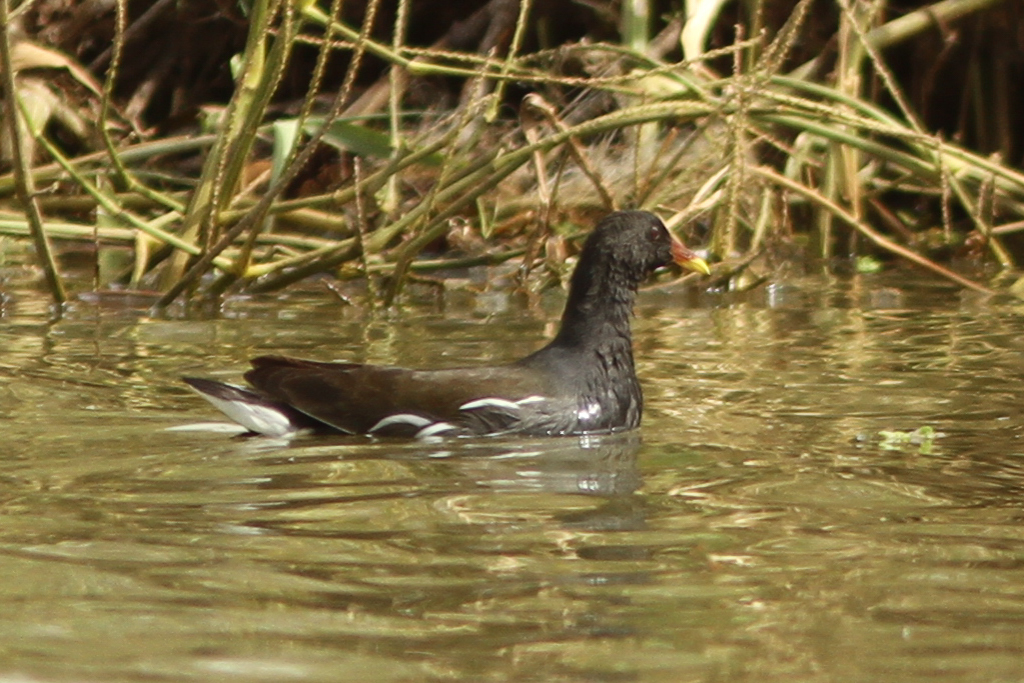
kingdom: Animalia
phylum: Chordata
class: Aves
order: Gruiformes
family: Rallidae
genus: Gallinula
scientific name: Gallinula chloropus
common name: Common moorhen
